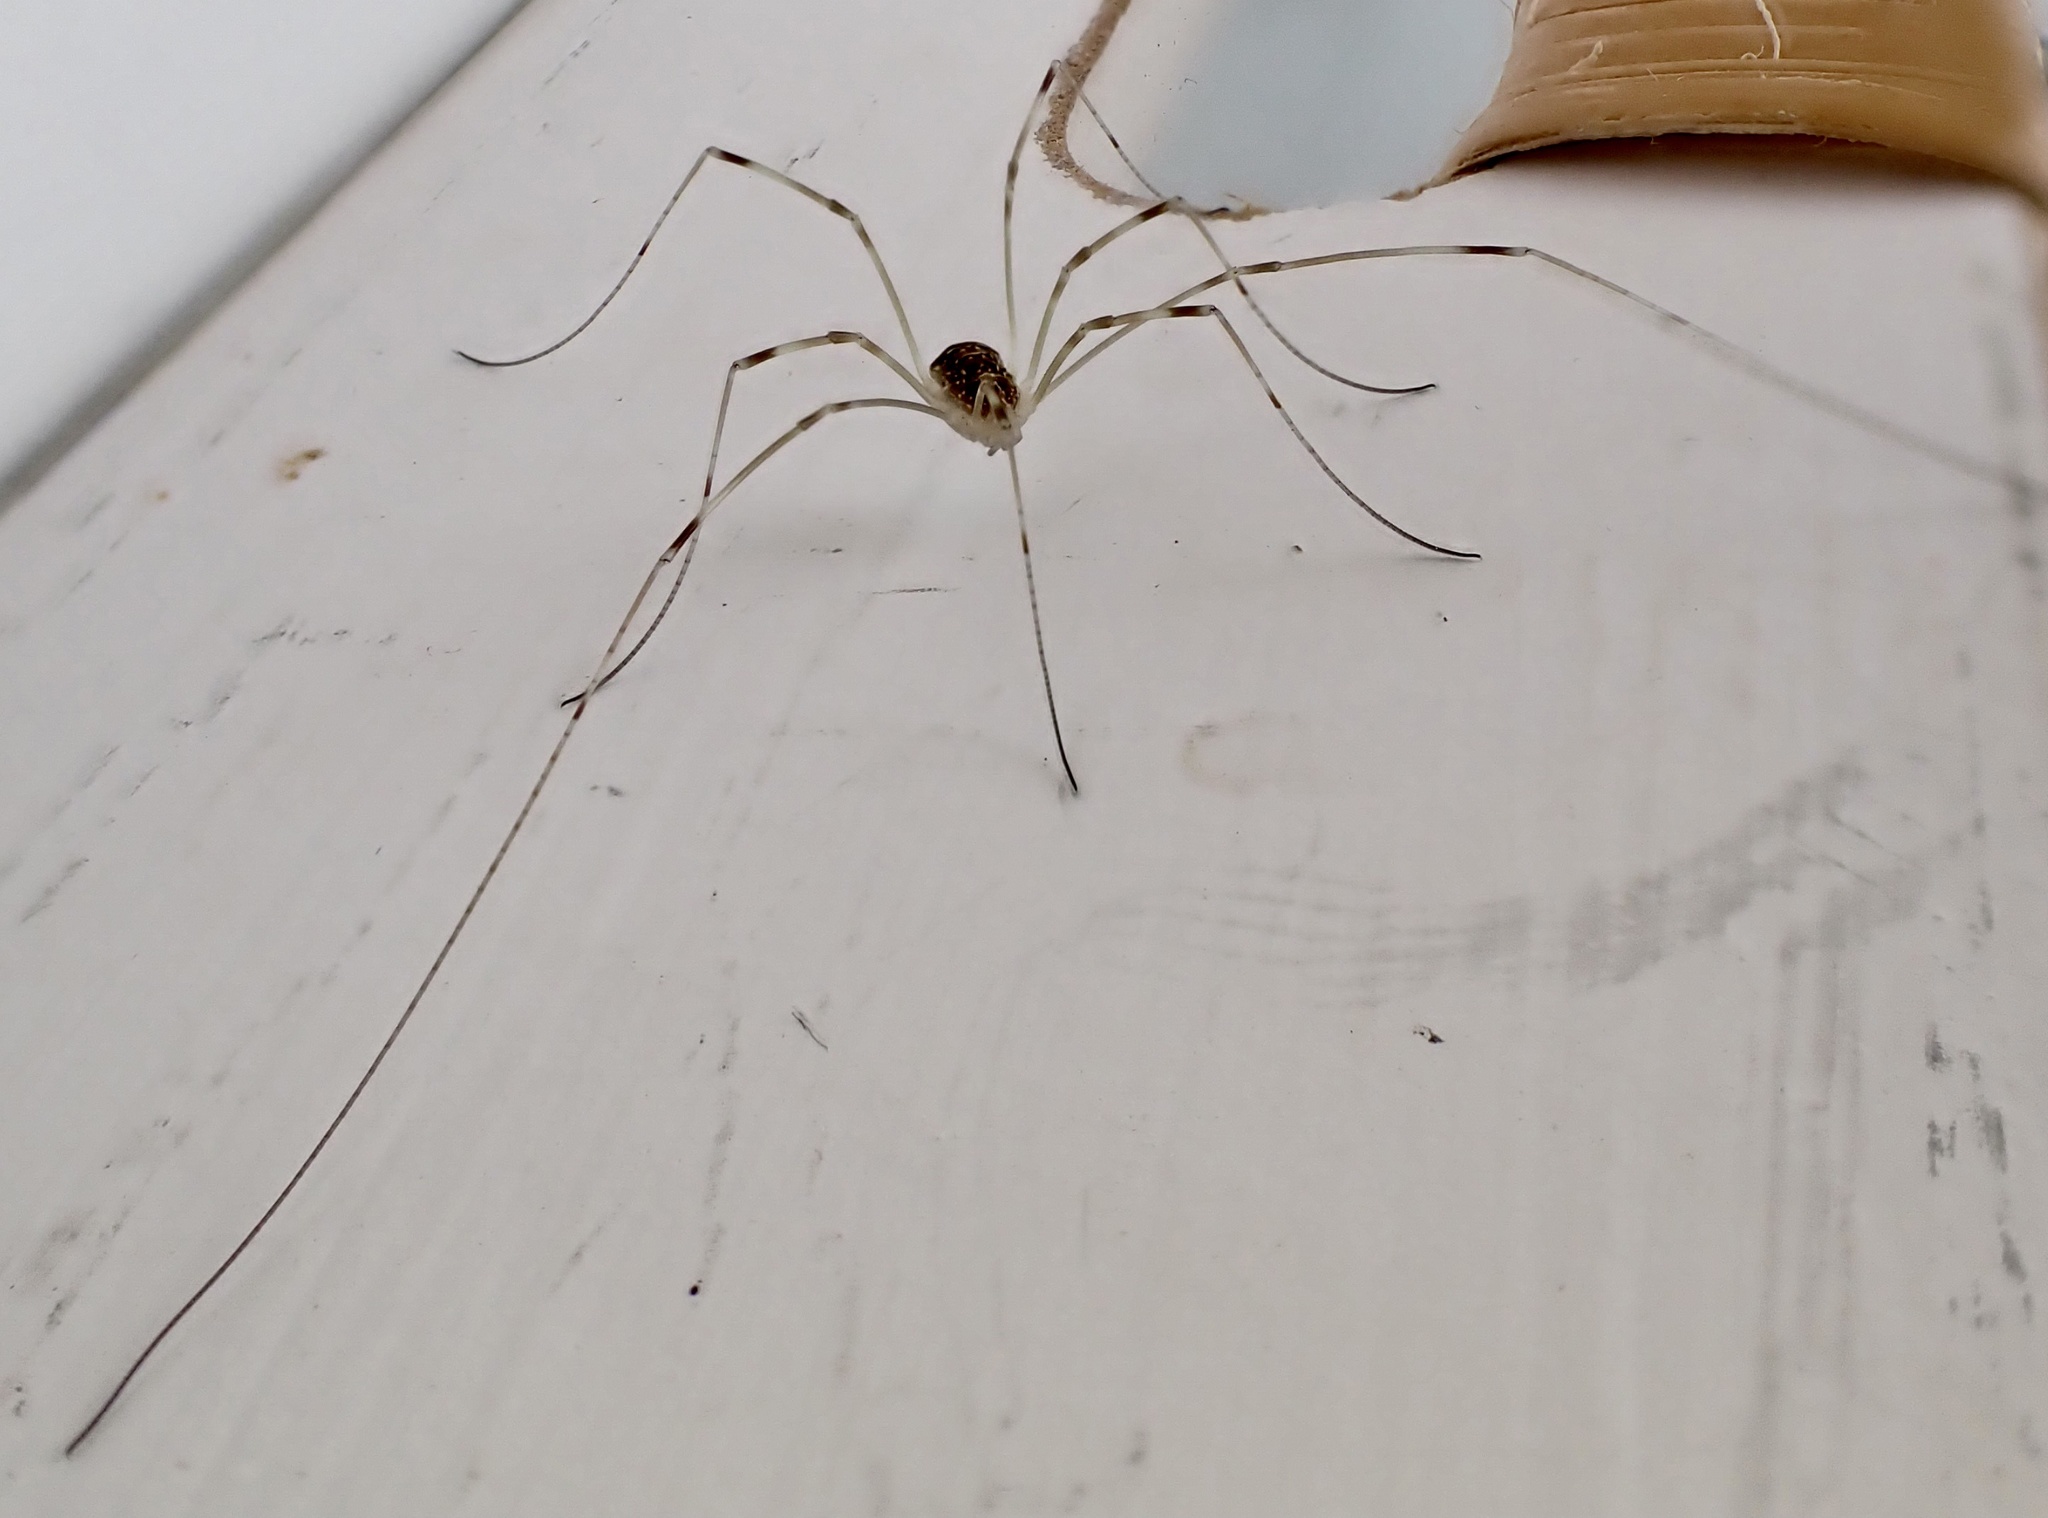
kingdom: Animalia
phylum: Arthropoda
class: Arachnida
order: Opiliones
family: Phalangiidae
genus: Opilio
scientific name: Opilio canestrinii
